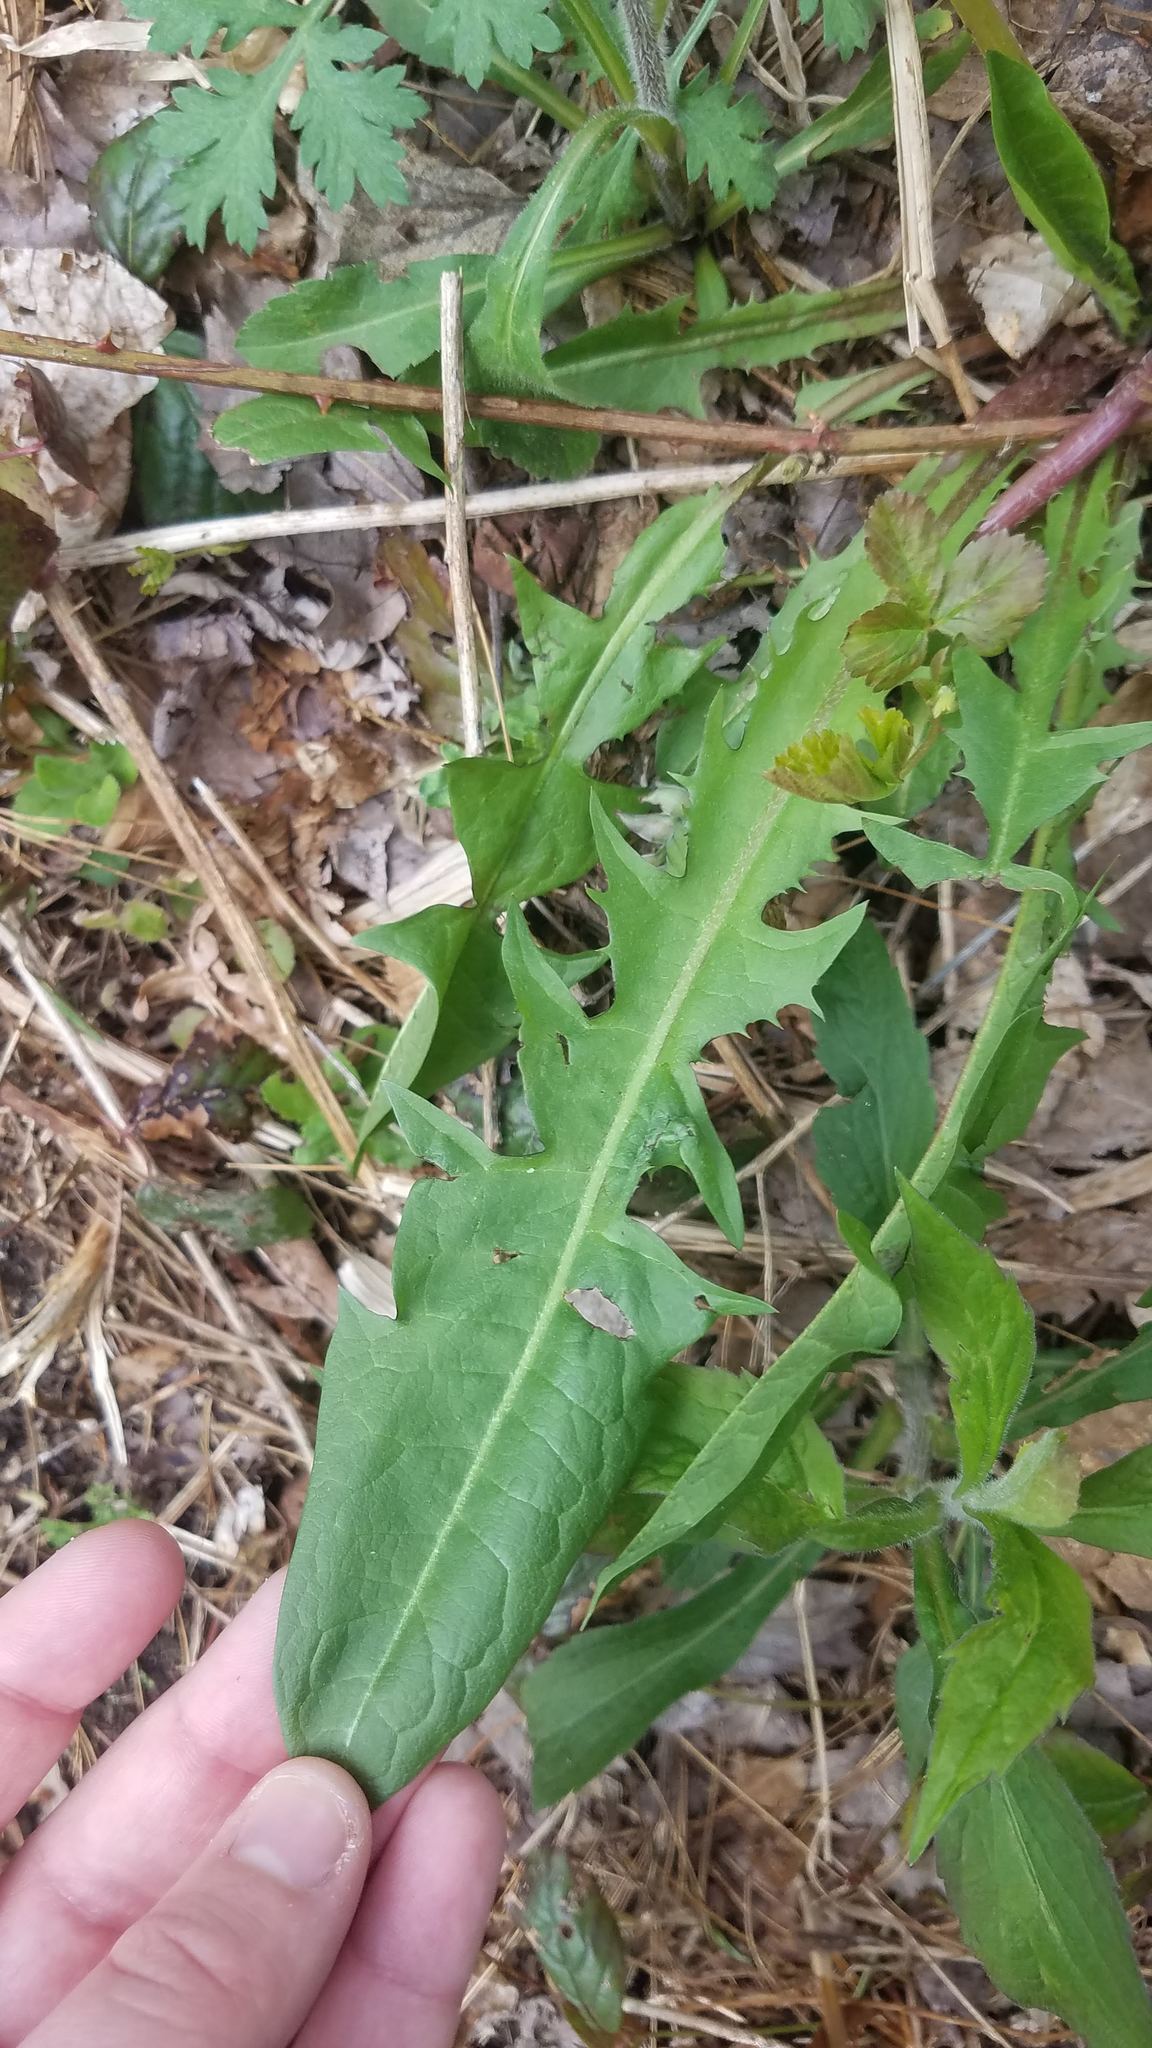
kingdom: Plantae
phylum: Tracheophyta
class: Magnoliopsida
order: Asterales
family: Asteraceae
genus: Taraxacum
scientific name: Taraxacum officinale
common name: Common dandelion
